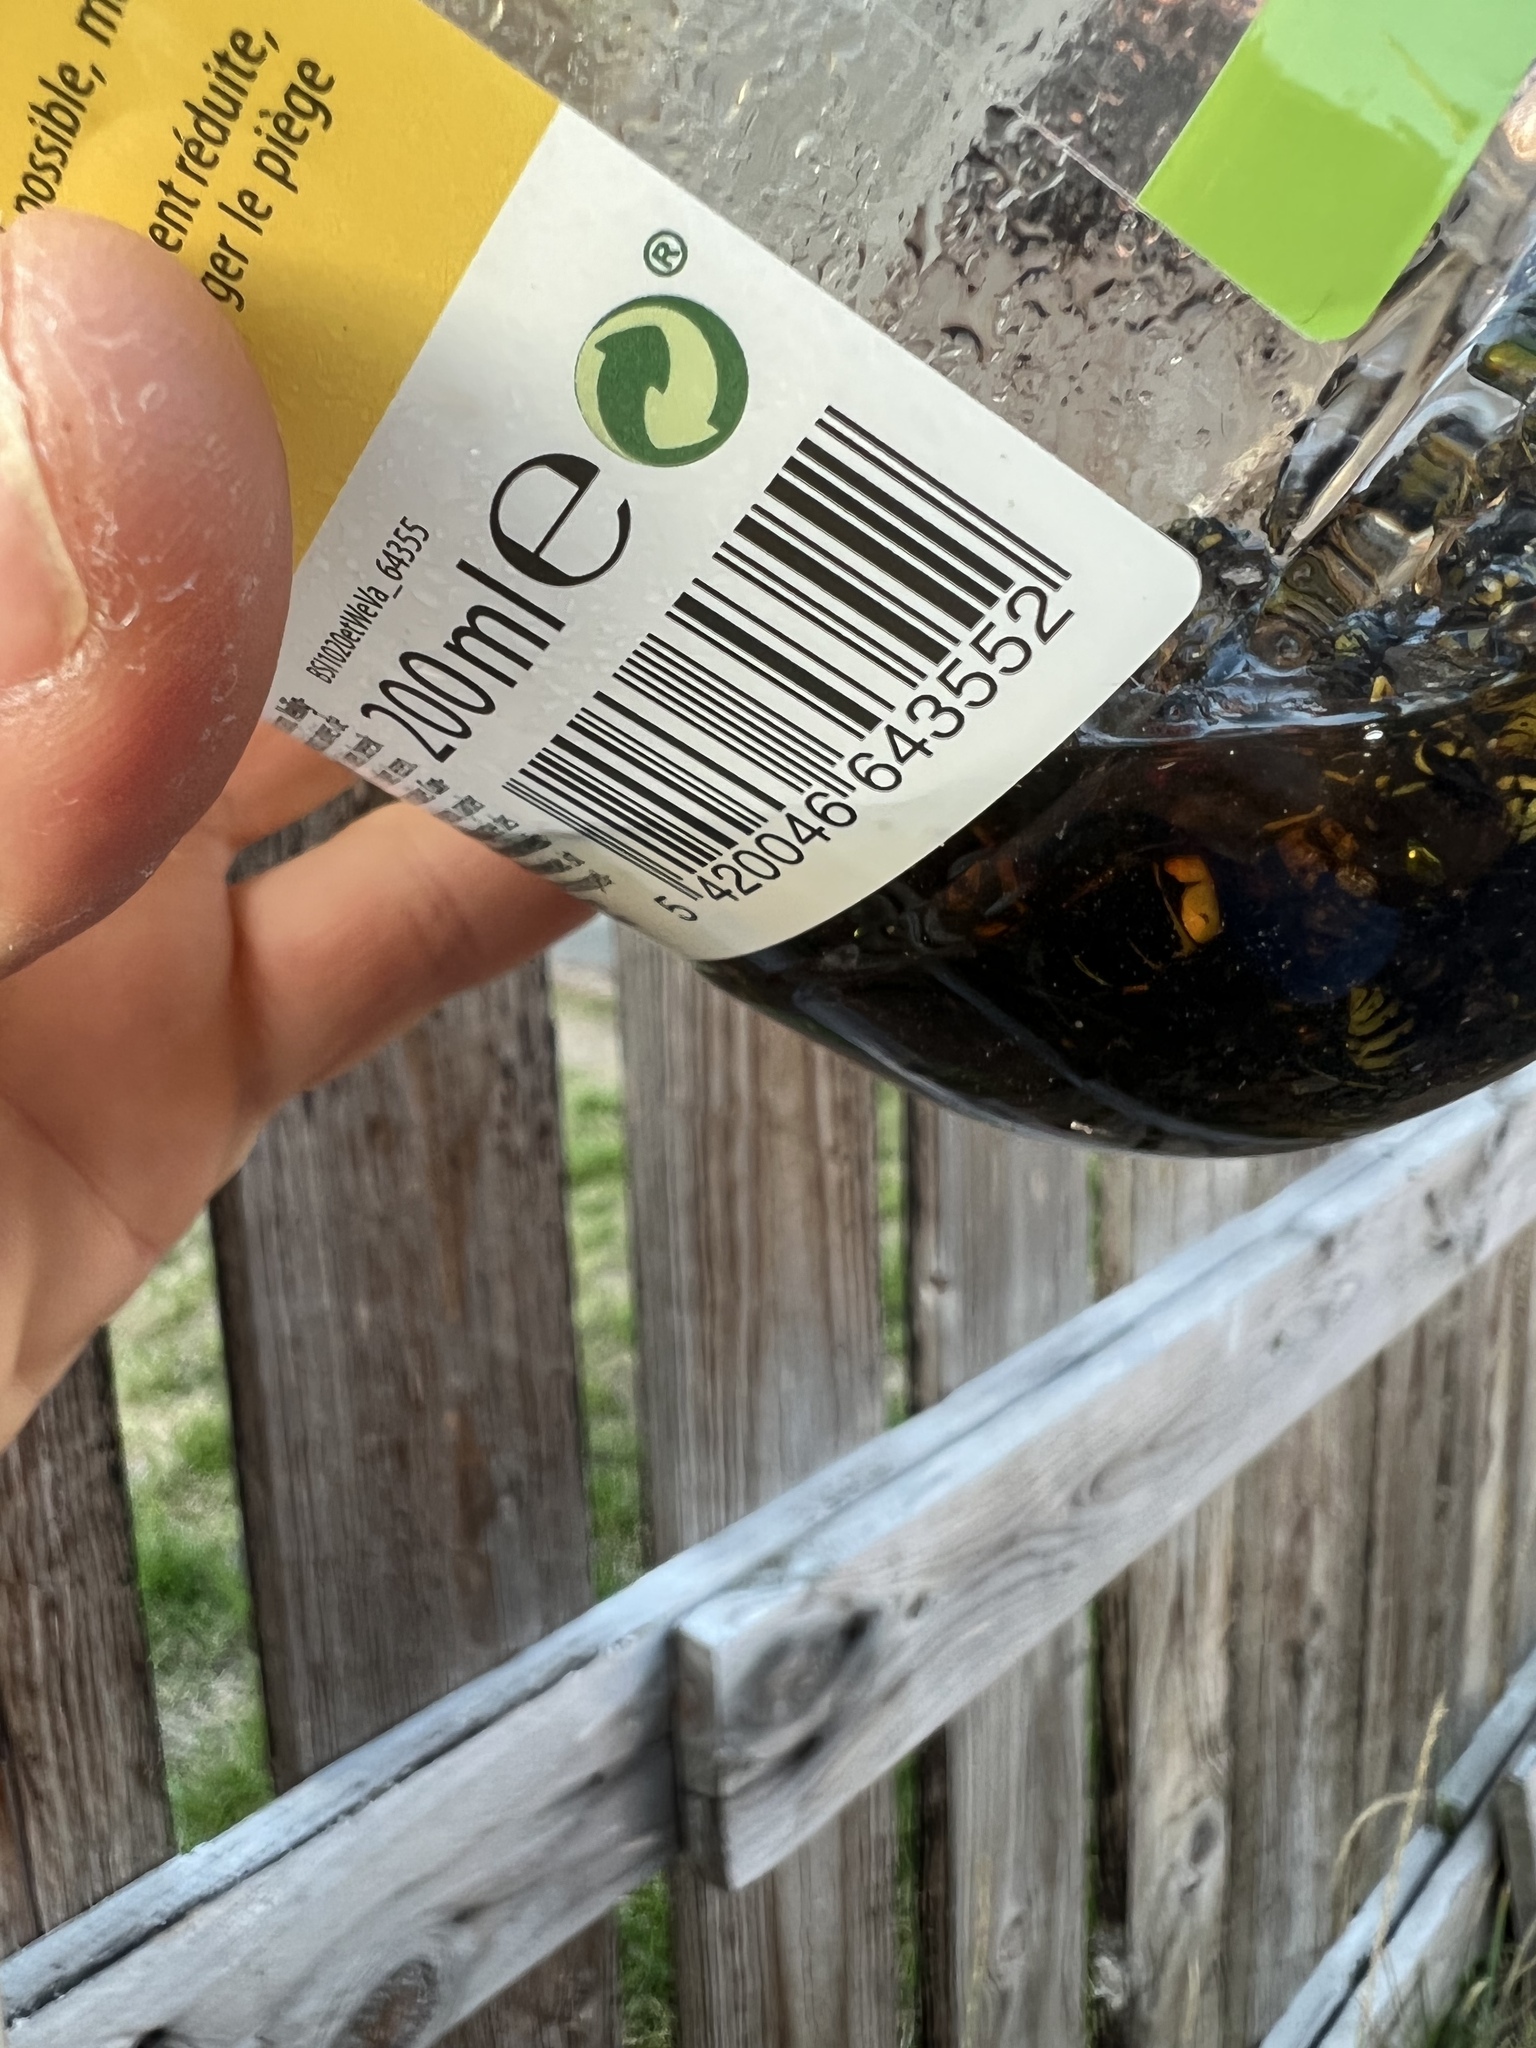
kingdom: Animalia
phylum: Arthropoda
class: Insecta
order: Hymenoptera
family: Vespidae
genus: Vespa
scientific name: Vespa velutina
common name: Asian hornet
